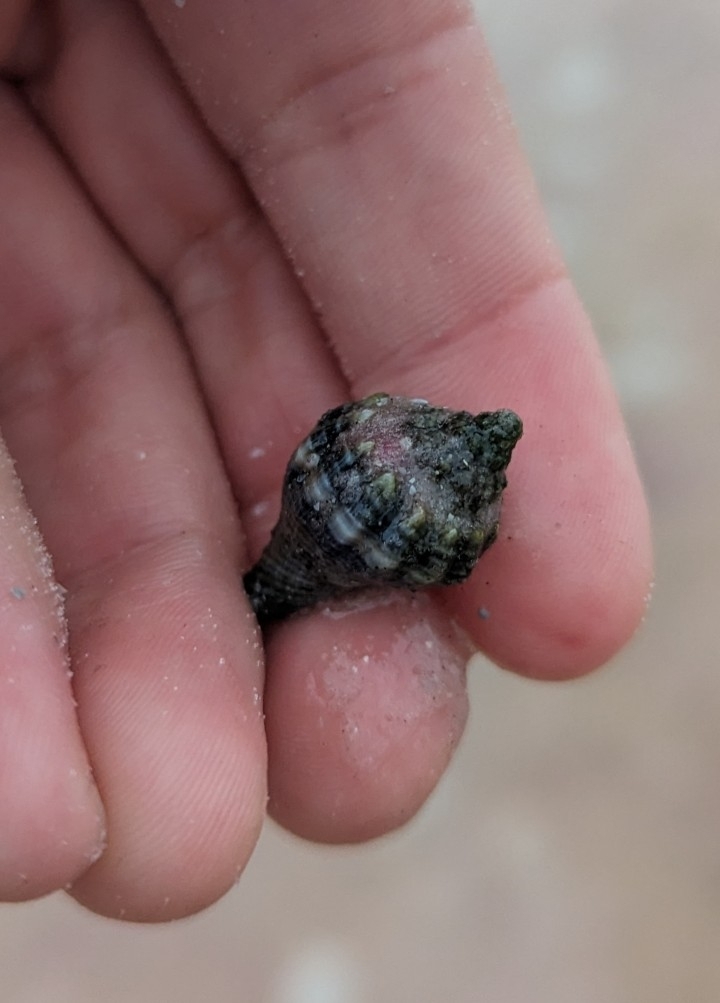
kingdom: Animalia
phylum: Mollusca
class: Gastropoda
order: Neogastropoda
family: Melongenidae
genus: Melongena
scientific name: Melongena corona
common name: American crown conch
